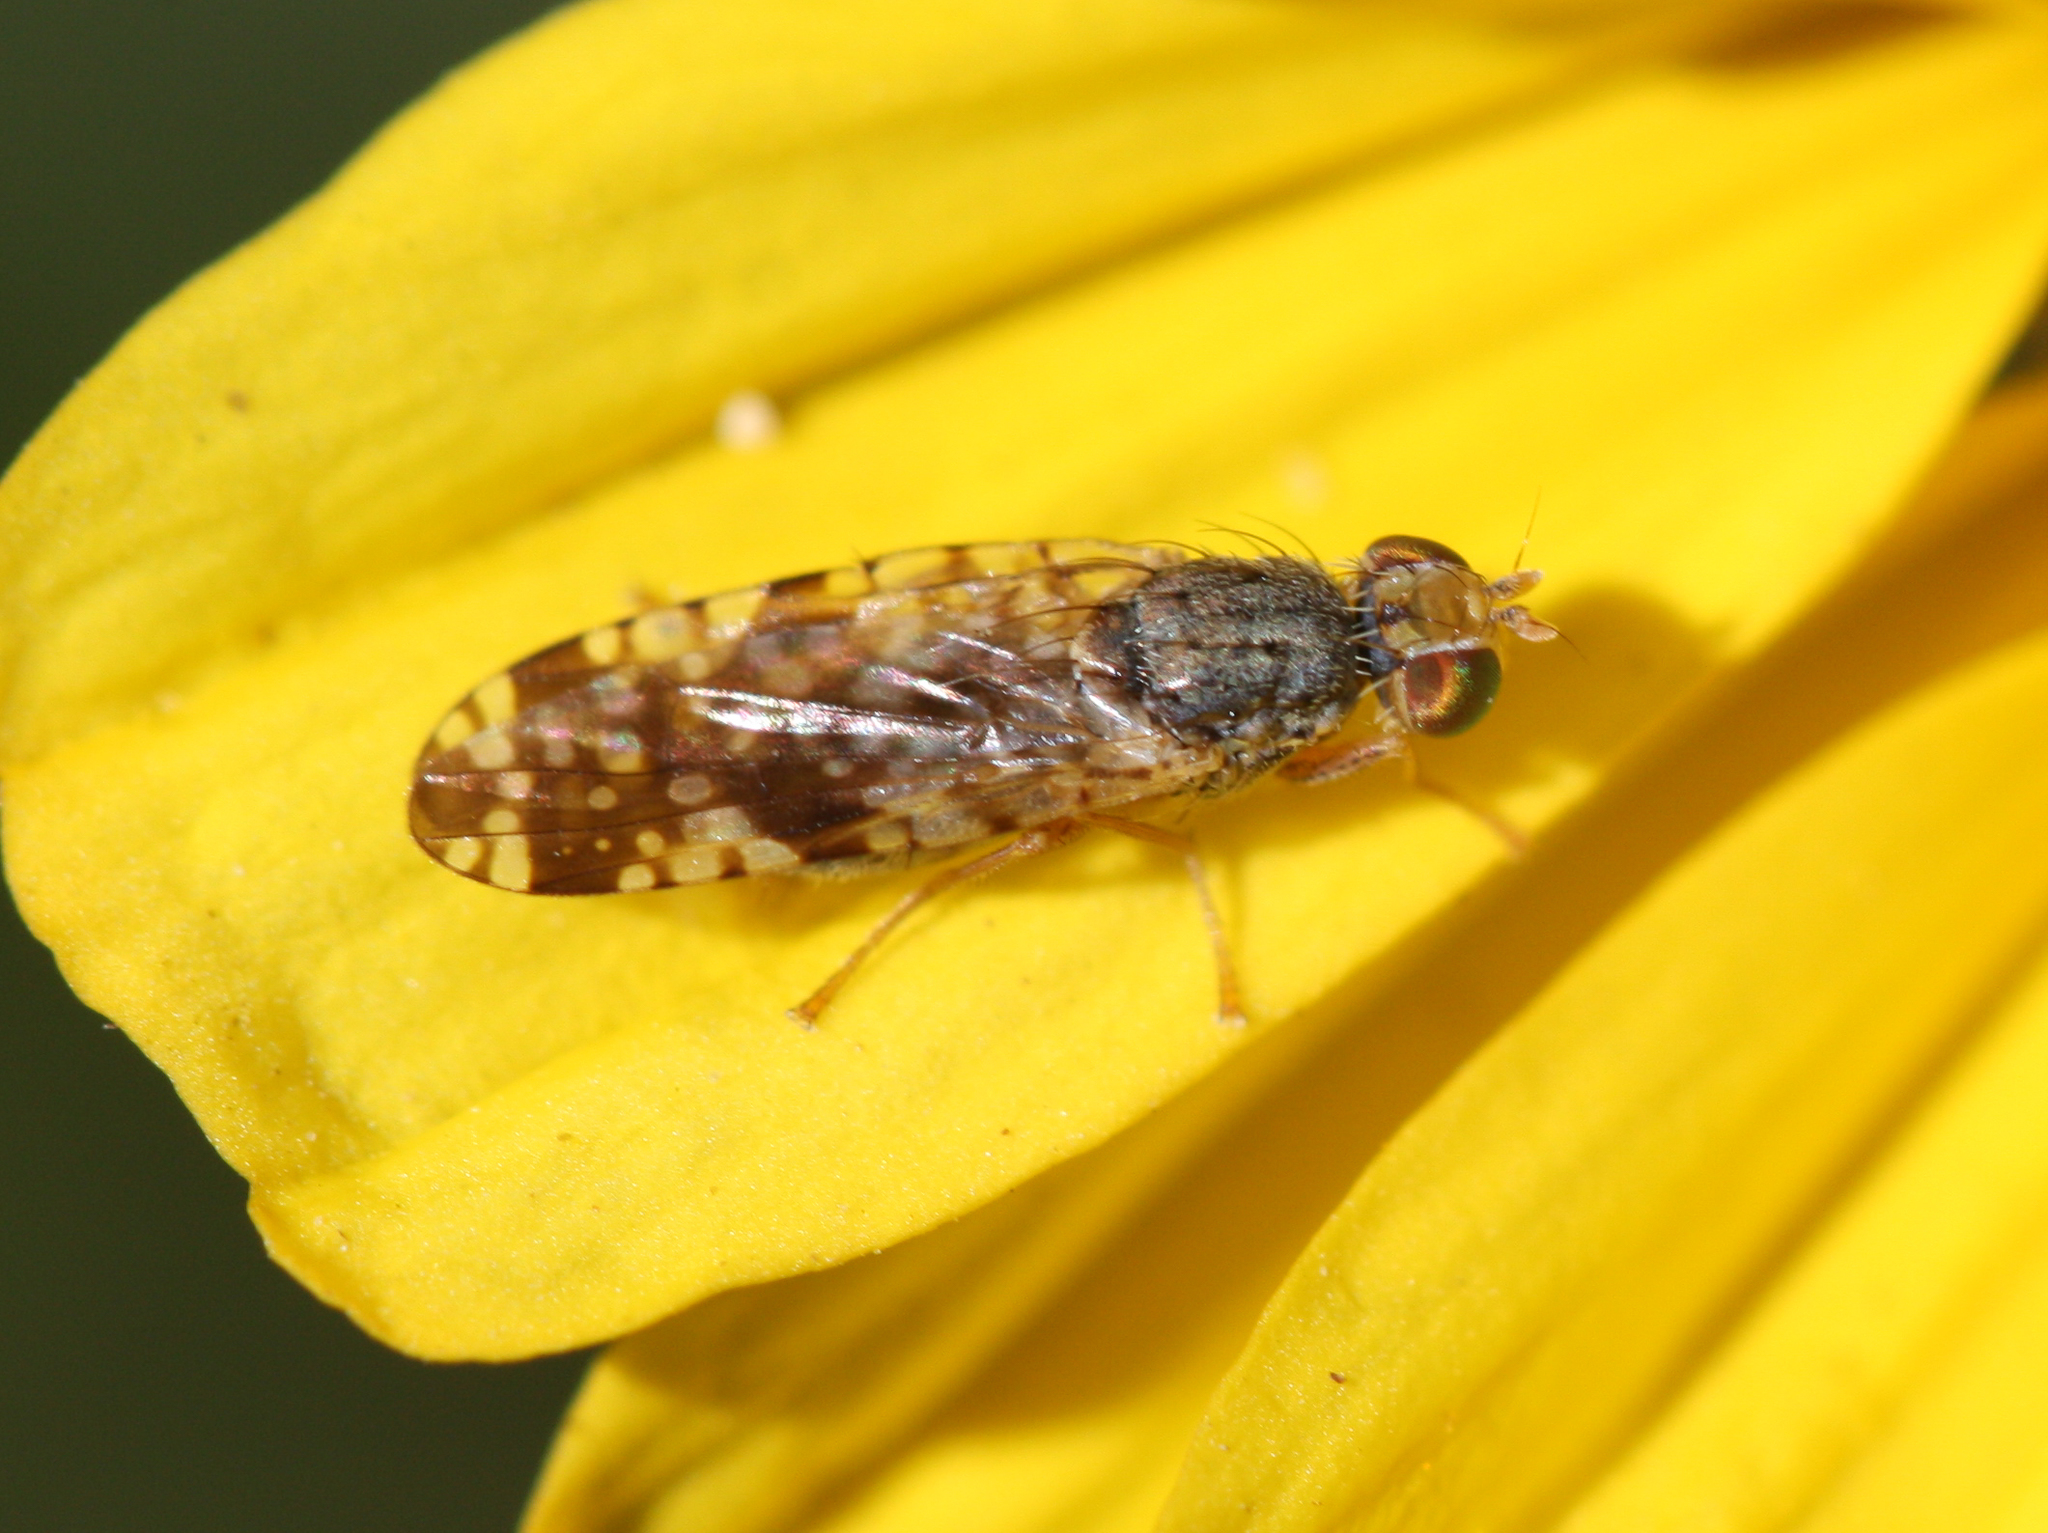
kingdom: Animalia
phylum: Arthropoda
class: Insecta
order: Diptera
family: Tephritidae
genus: Neotephritis
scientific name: Neotephritis finalis
